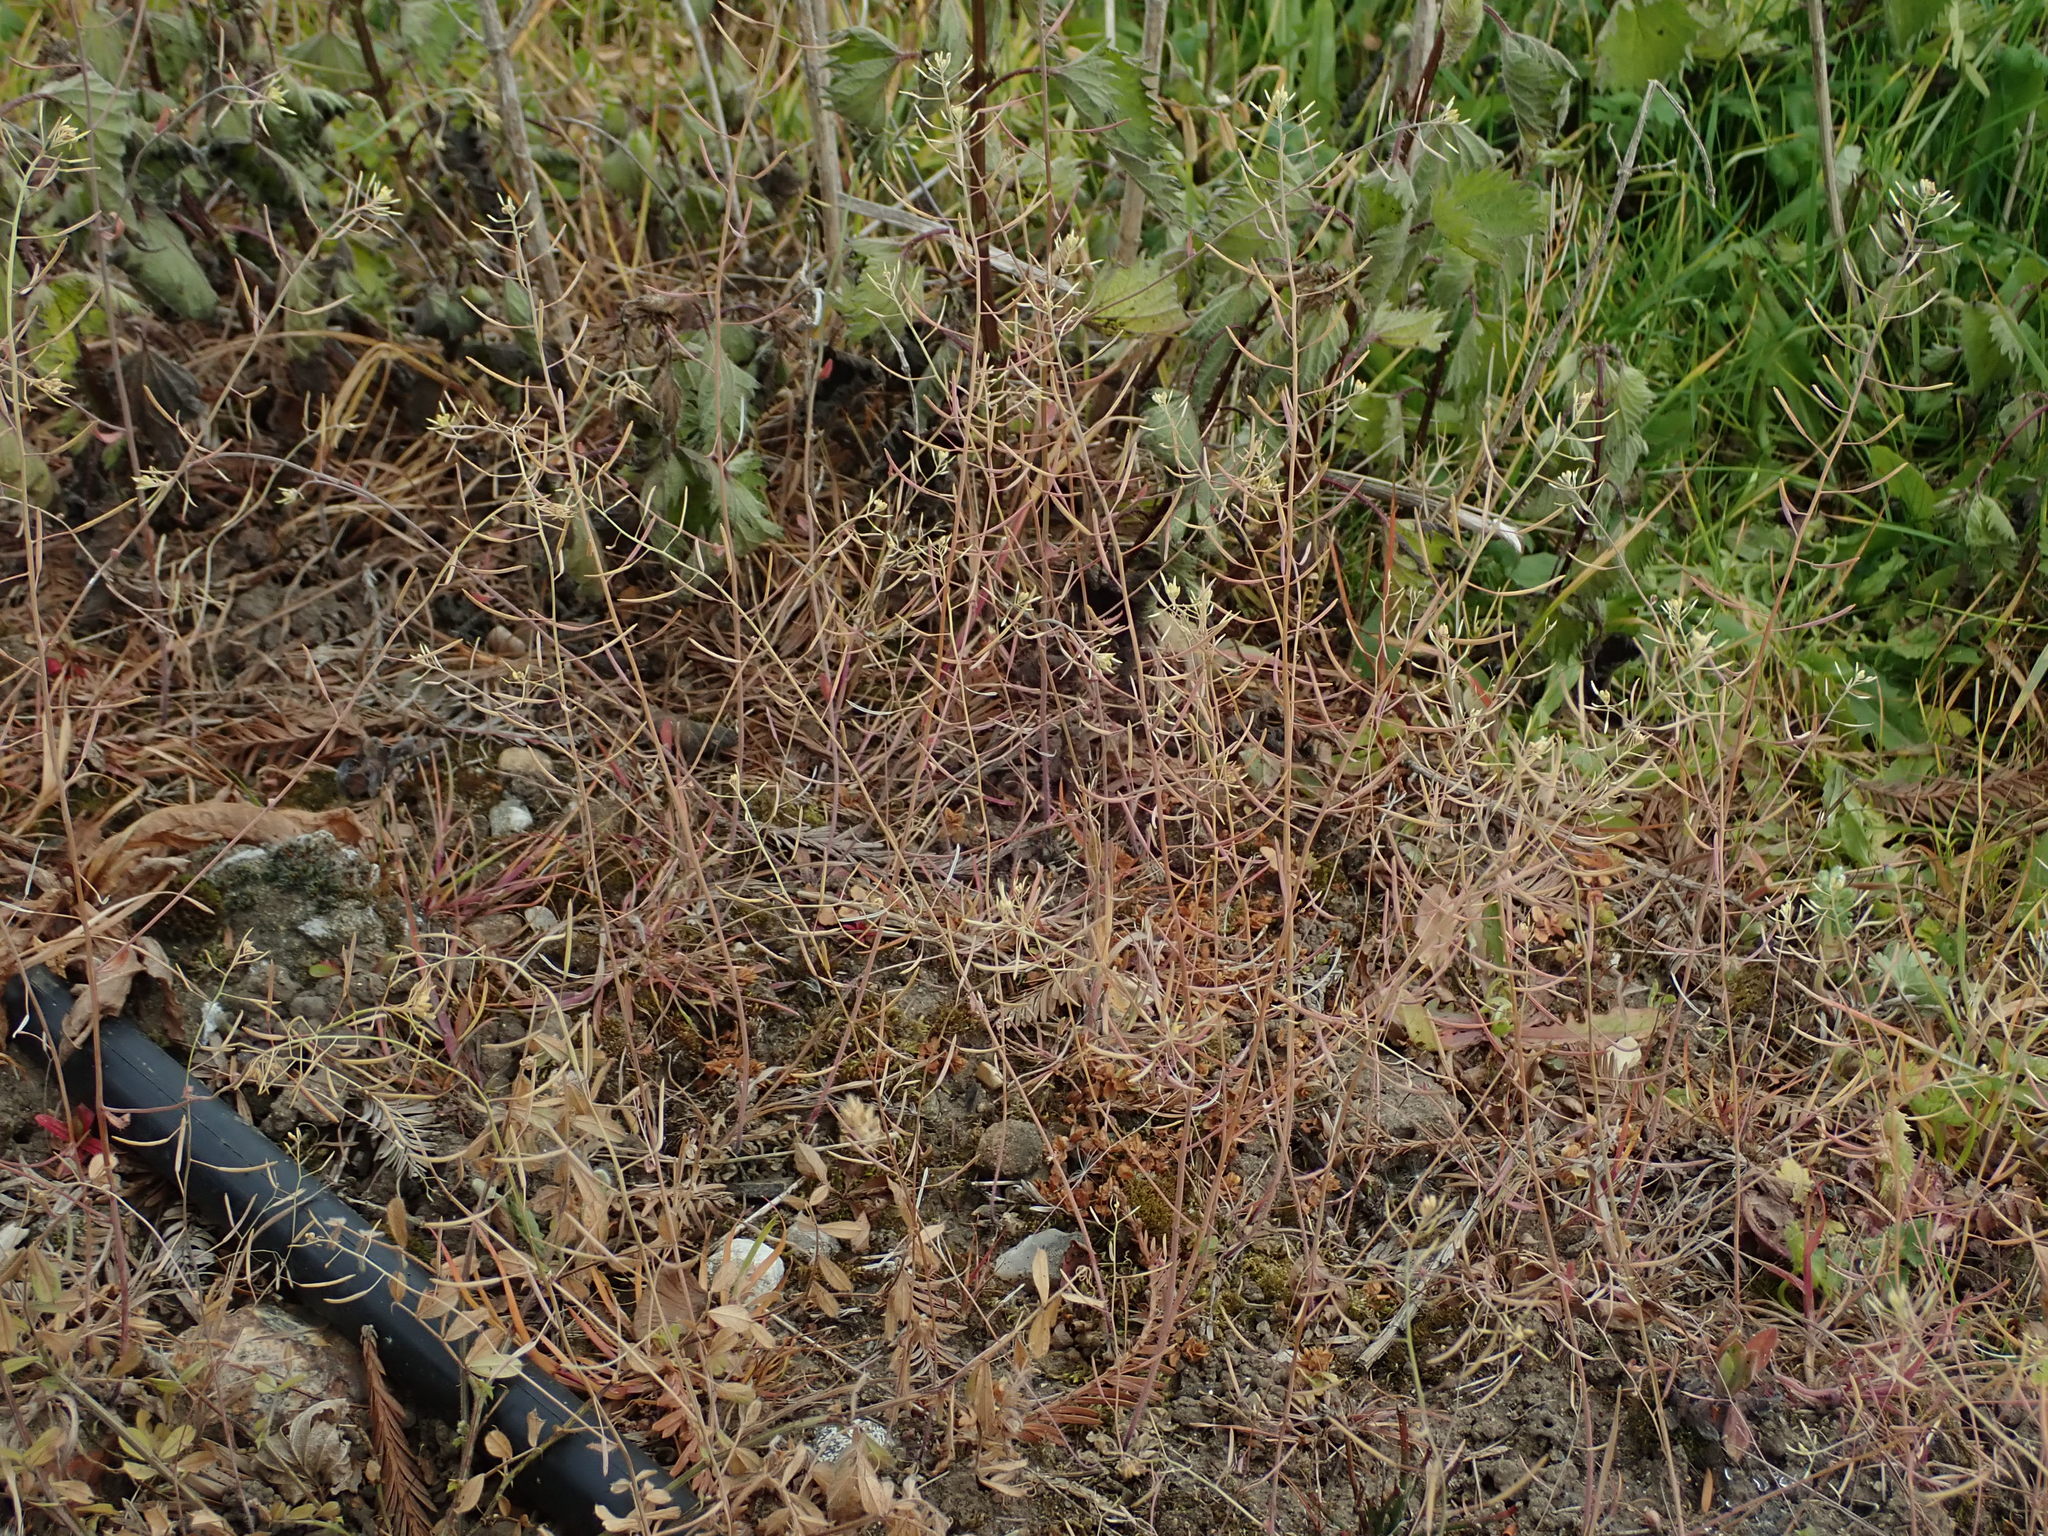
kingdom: Plantae
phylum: Tracheophyta
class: Magnoliopsida
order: Brassicales
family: Brassicaceae
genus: Arabidopsis
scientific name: Arabidopsis thaliana
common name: Thale cress
